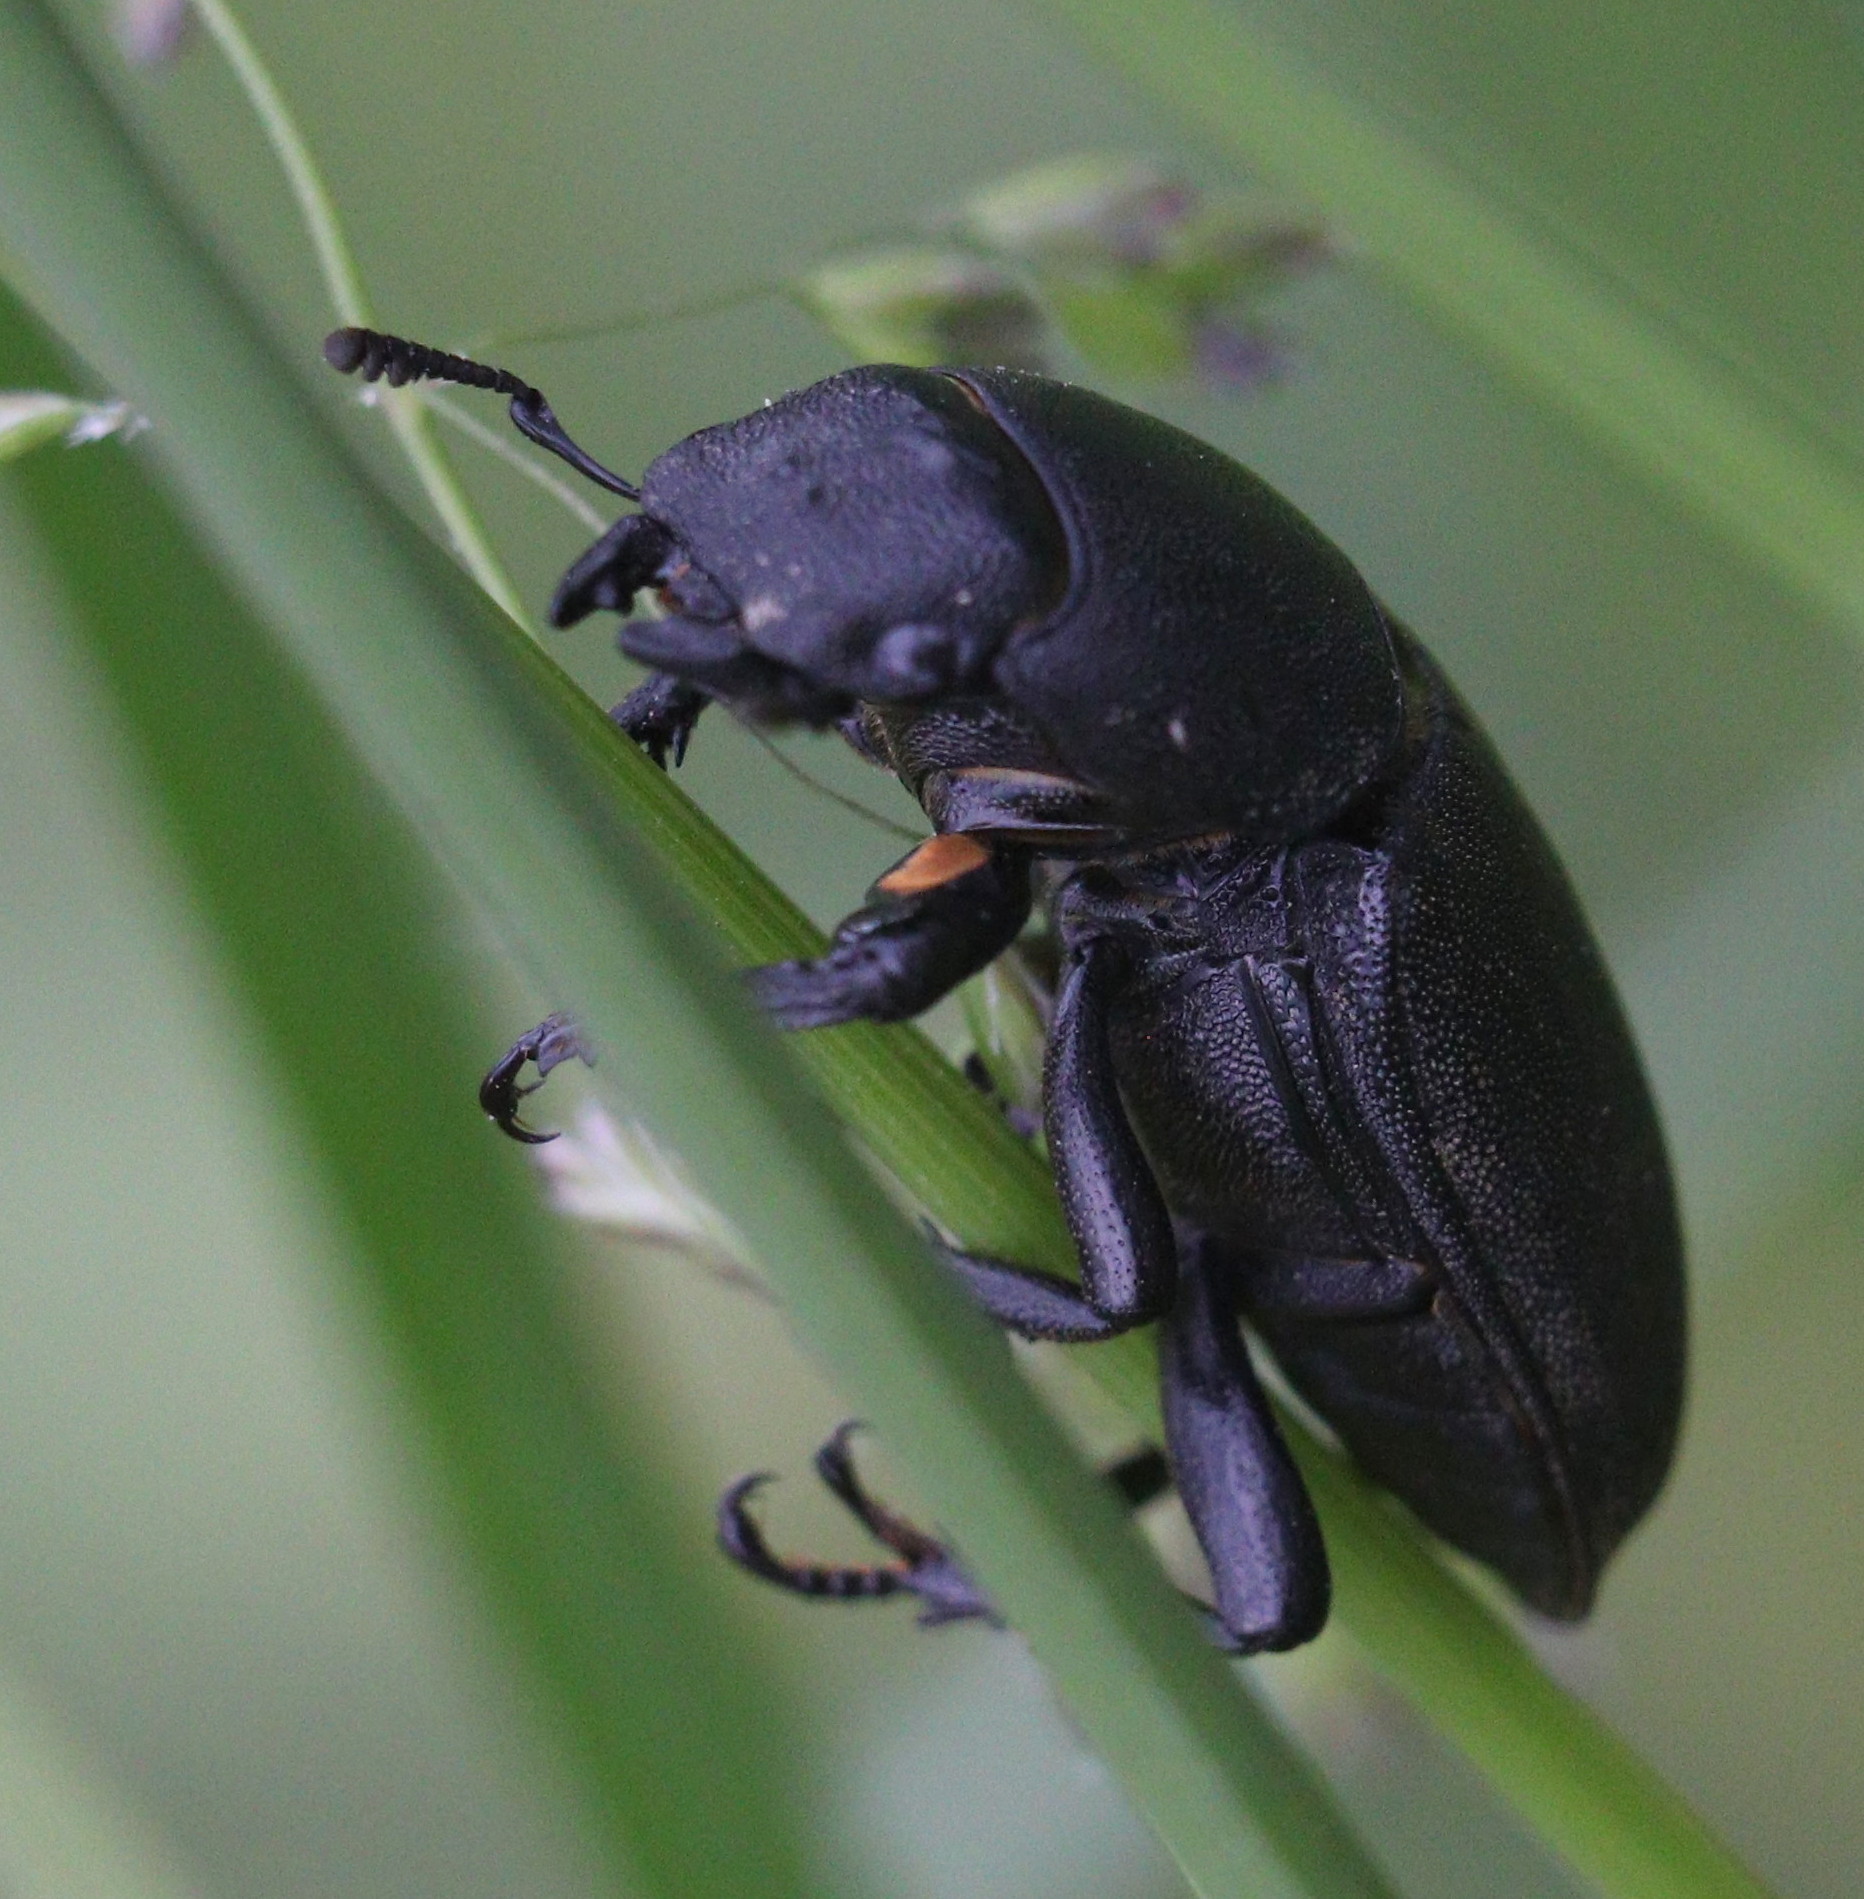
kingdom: Animalia
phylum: Arthropoda
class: Insecta
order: Coleoptera
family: Lucanidae
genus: Dorcus
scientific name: Dorcus parallelipipedus
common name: Lesser stag beetle
